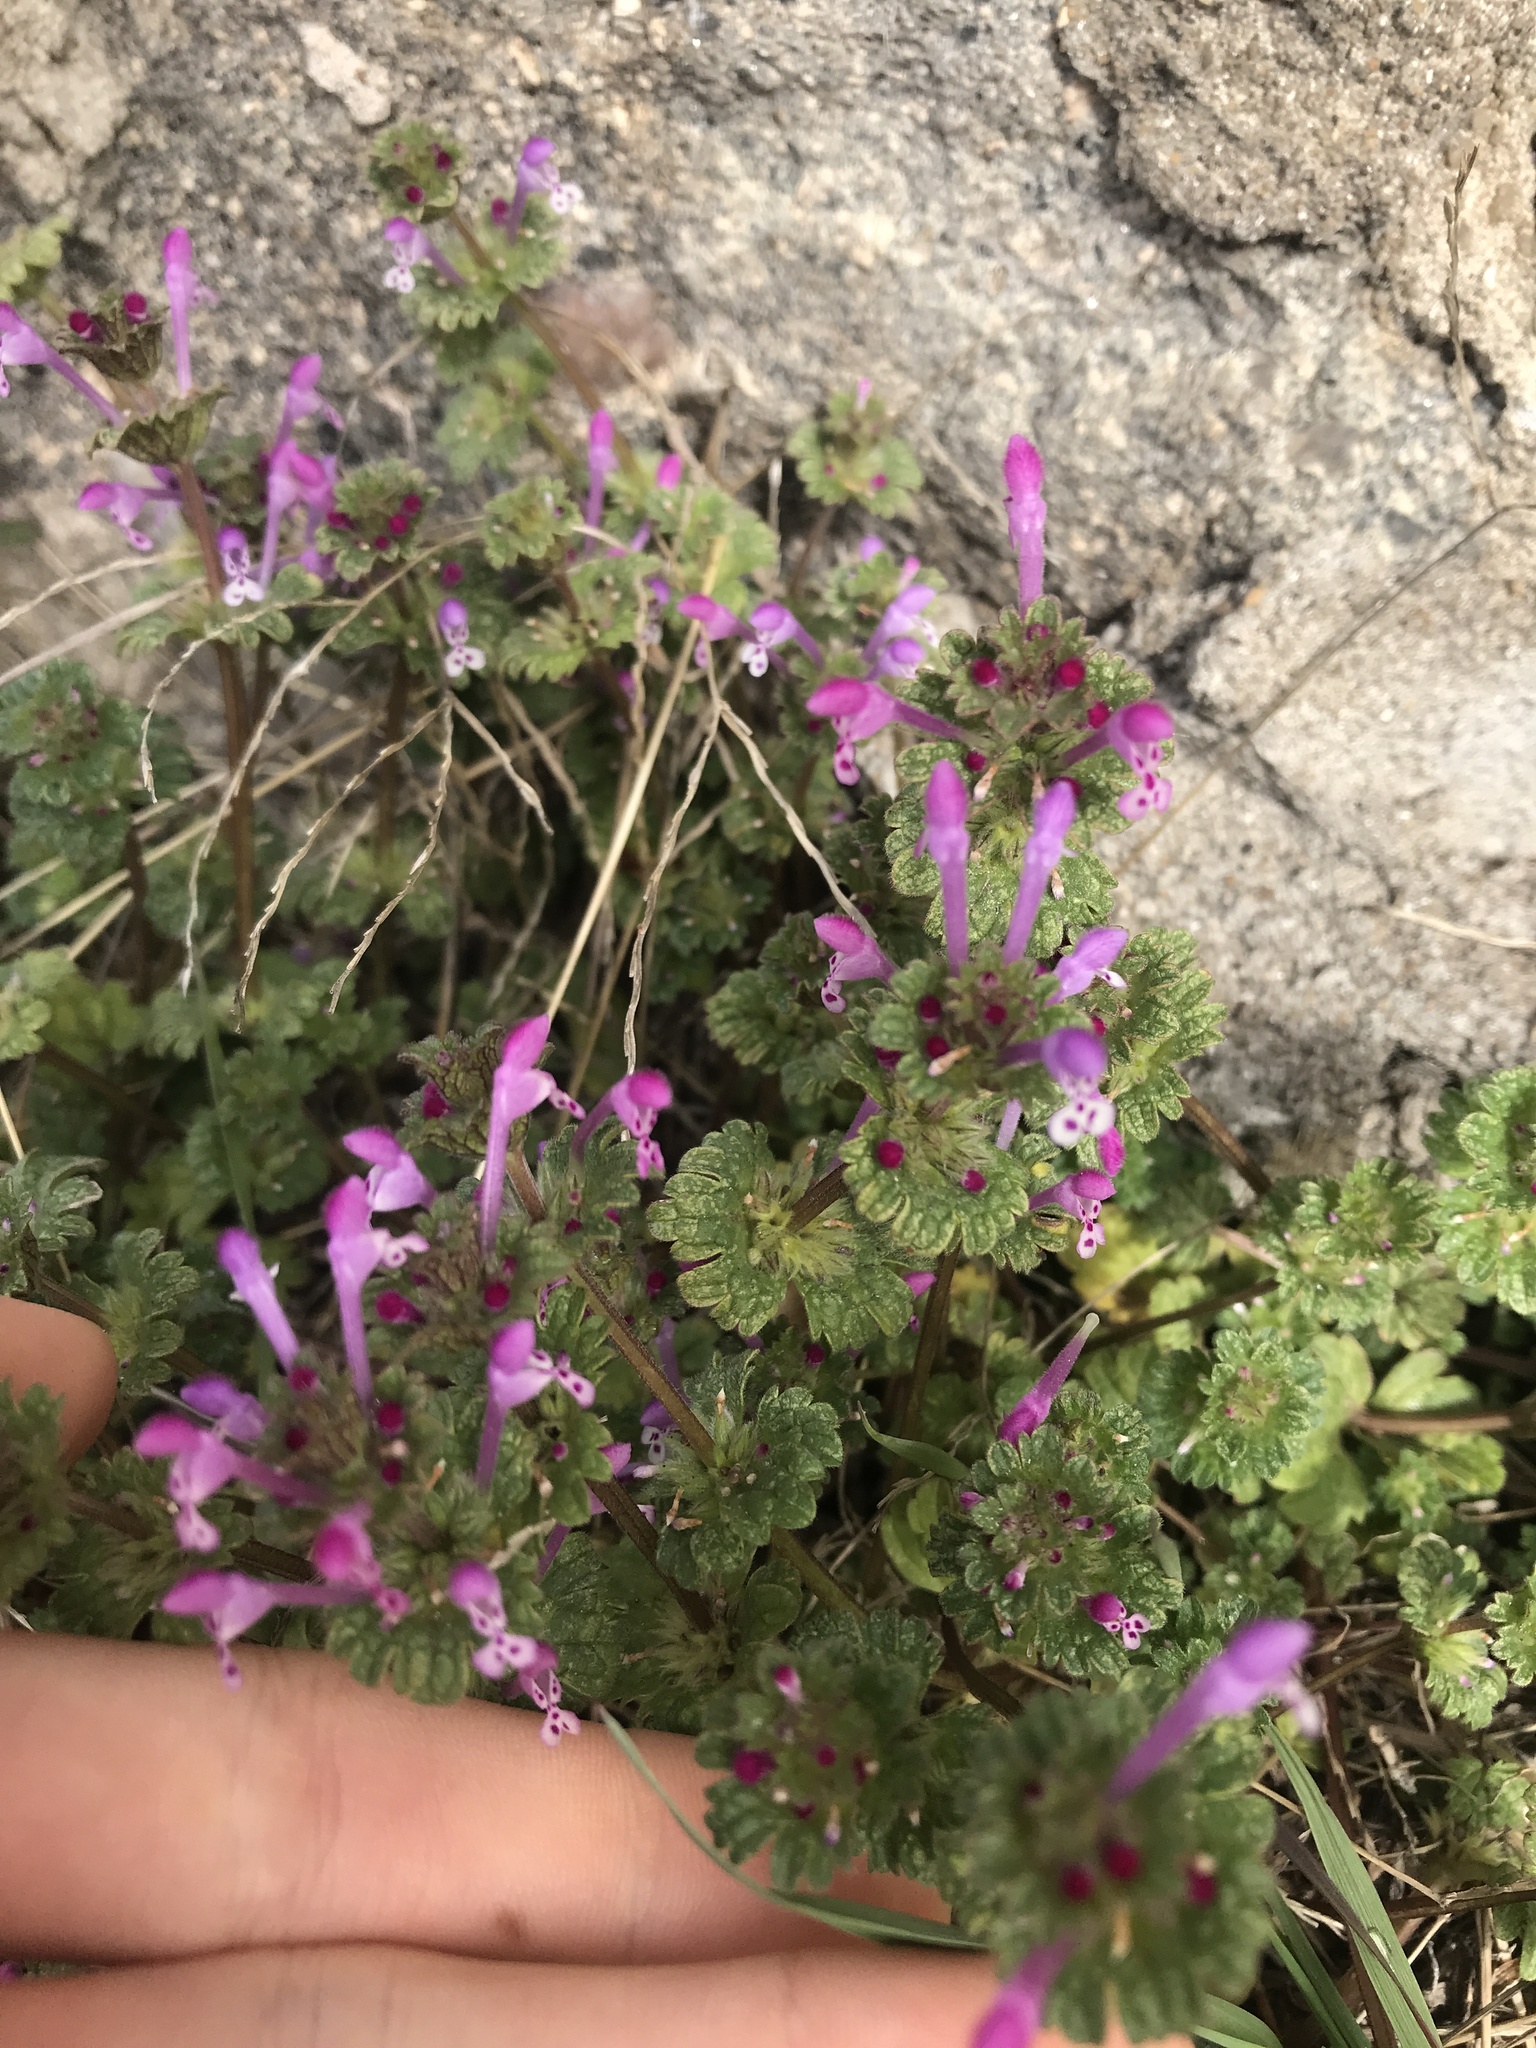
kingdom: Plantae
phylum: Tracheophyta
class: Magnoliopsida
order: Lamiales
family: Lamiaceae
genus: Lamium
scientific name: Lamium amplexicaule
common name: Henbit dead-nettle
